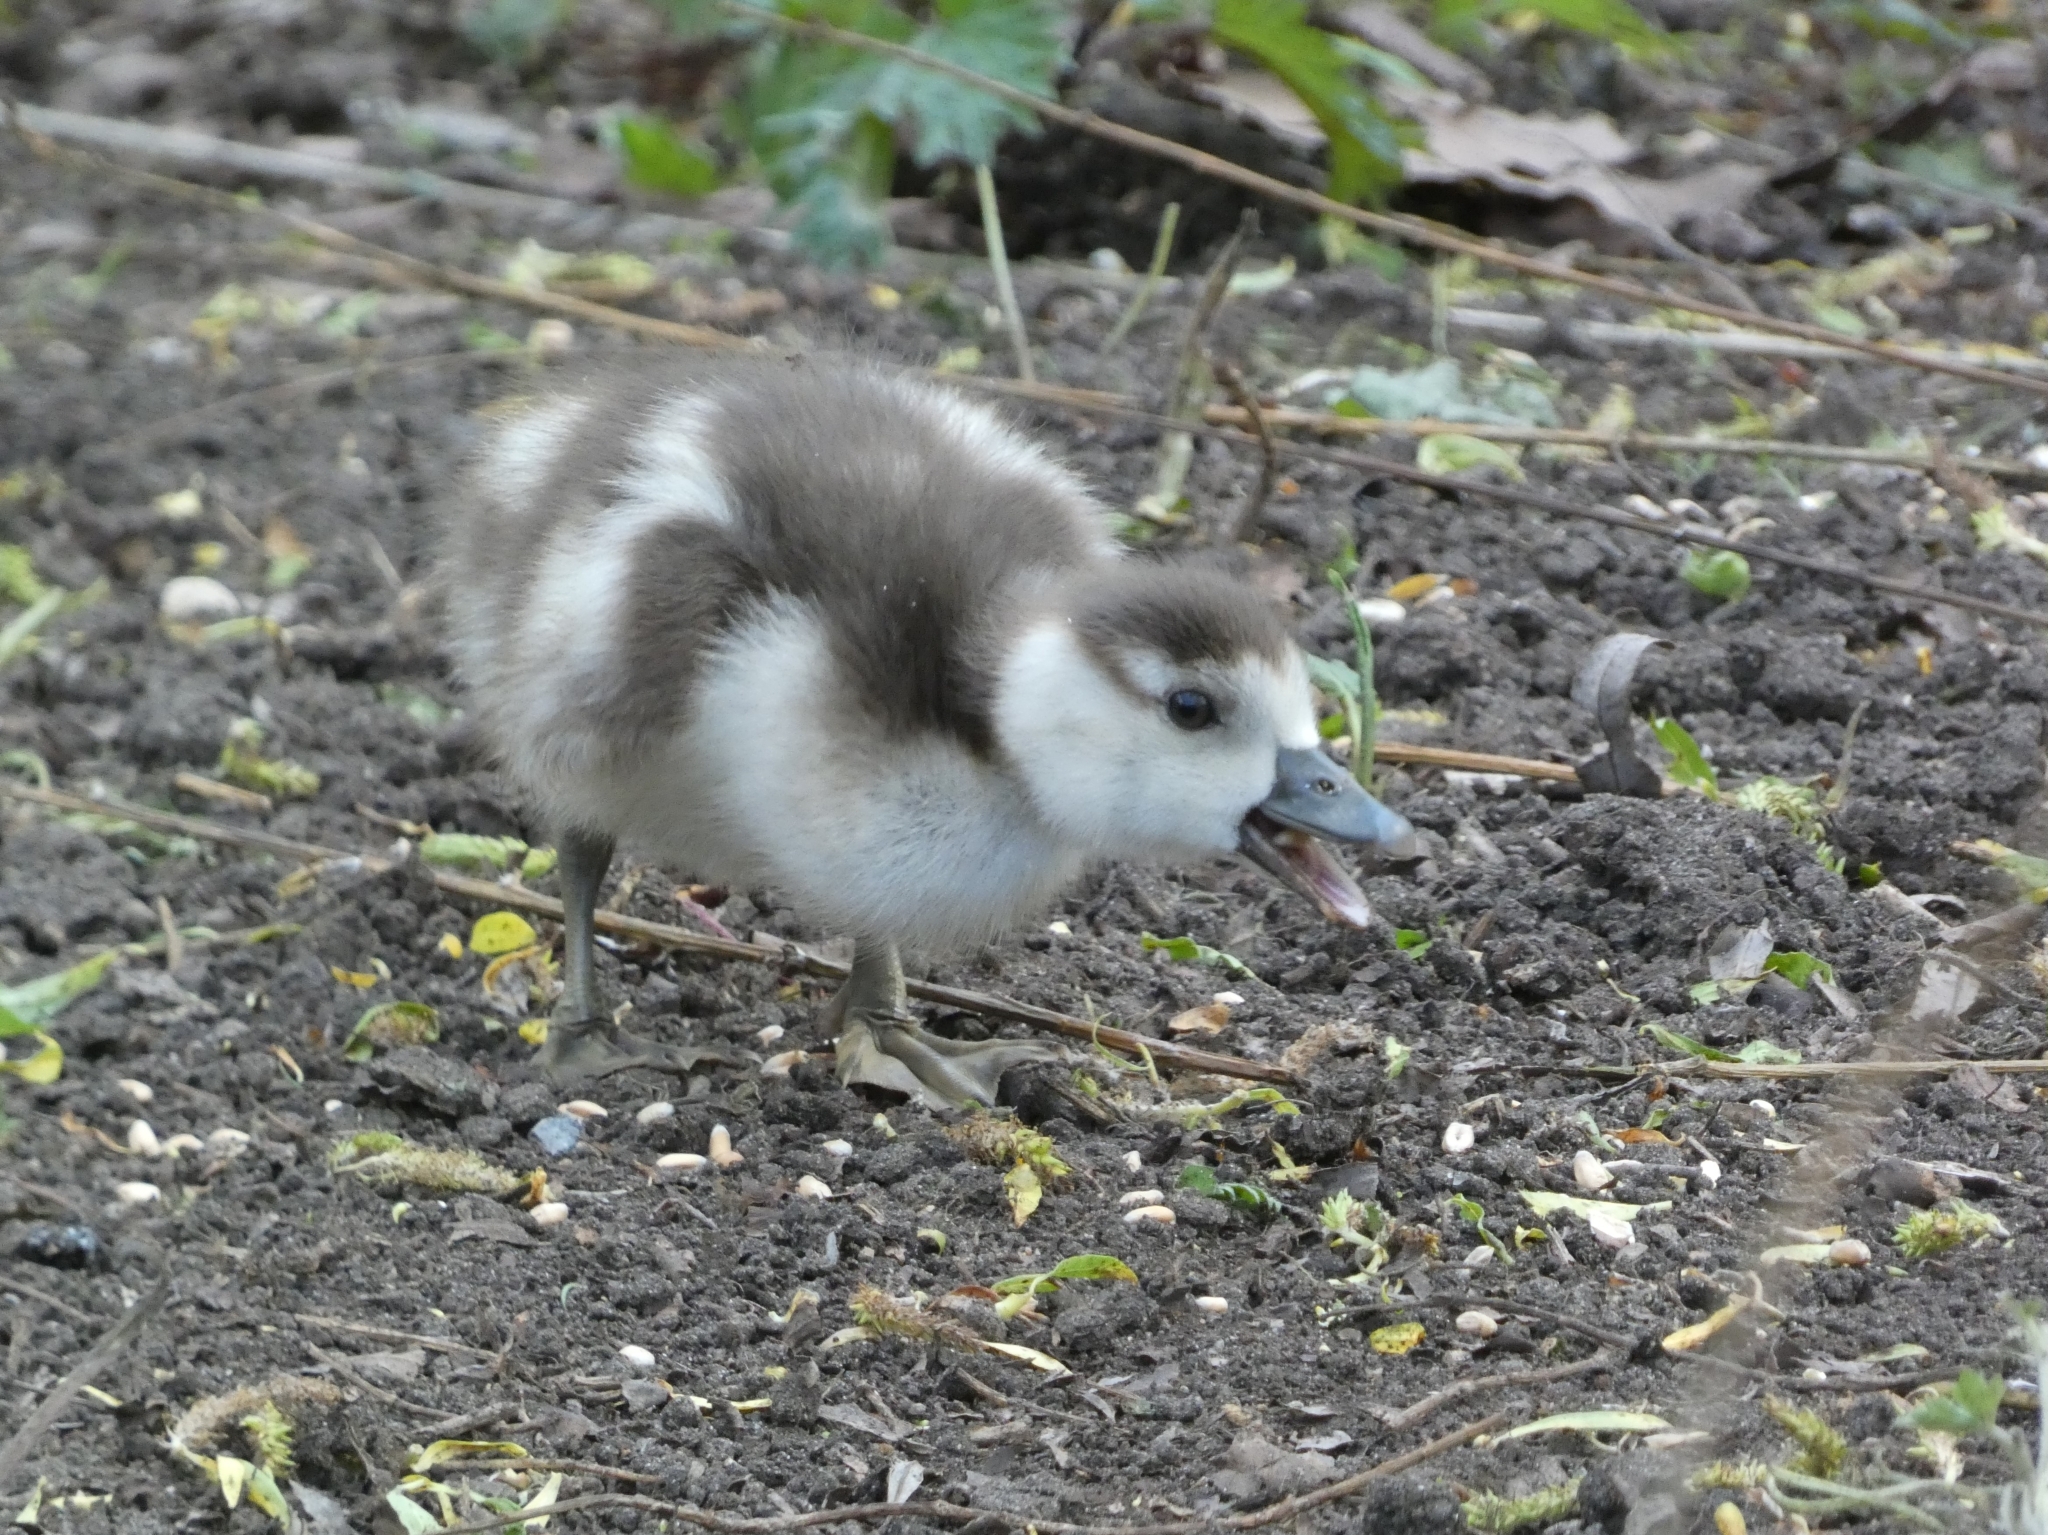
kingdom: Animalia
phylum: Chordata
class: Aves
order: Anseriformes
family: Anatidae
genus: Alopochen
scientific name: Alopochen aegyptiaca
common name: Egyptian goose
